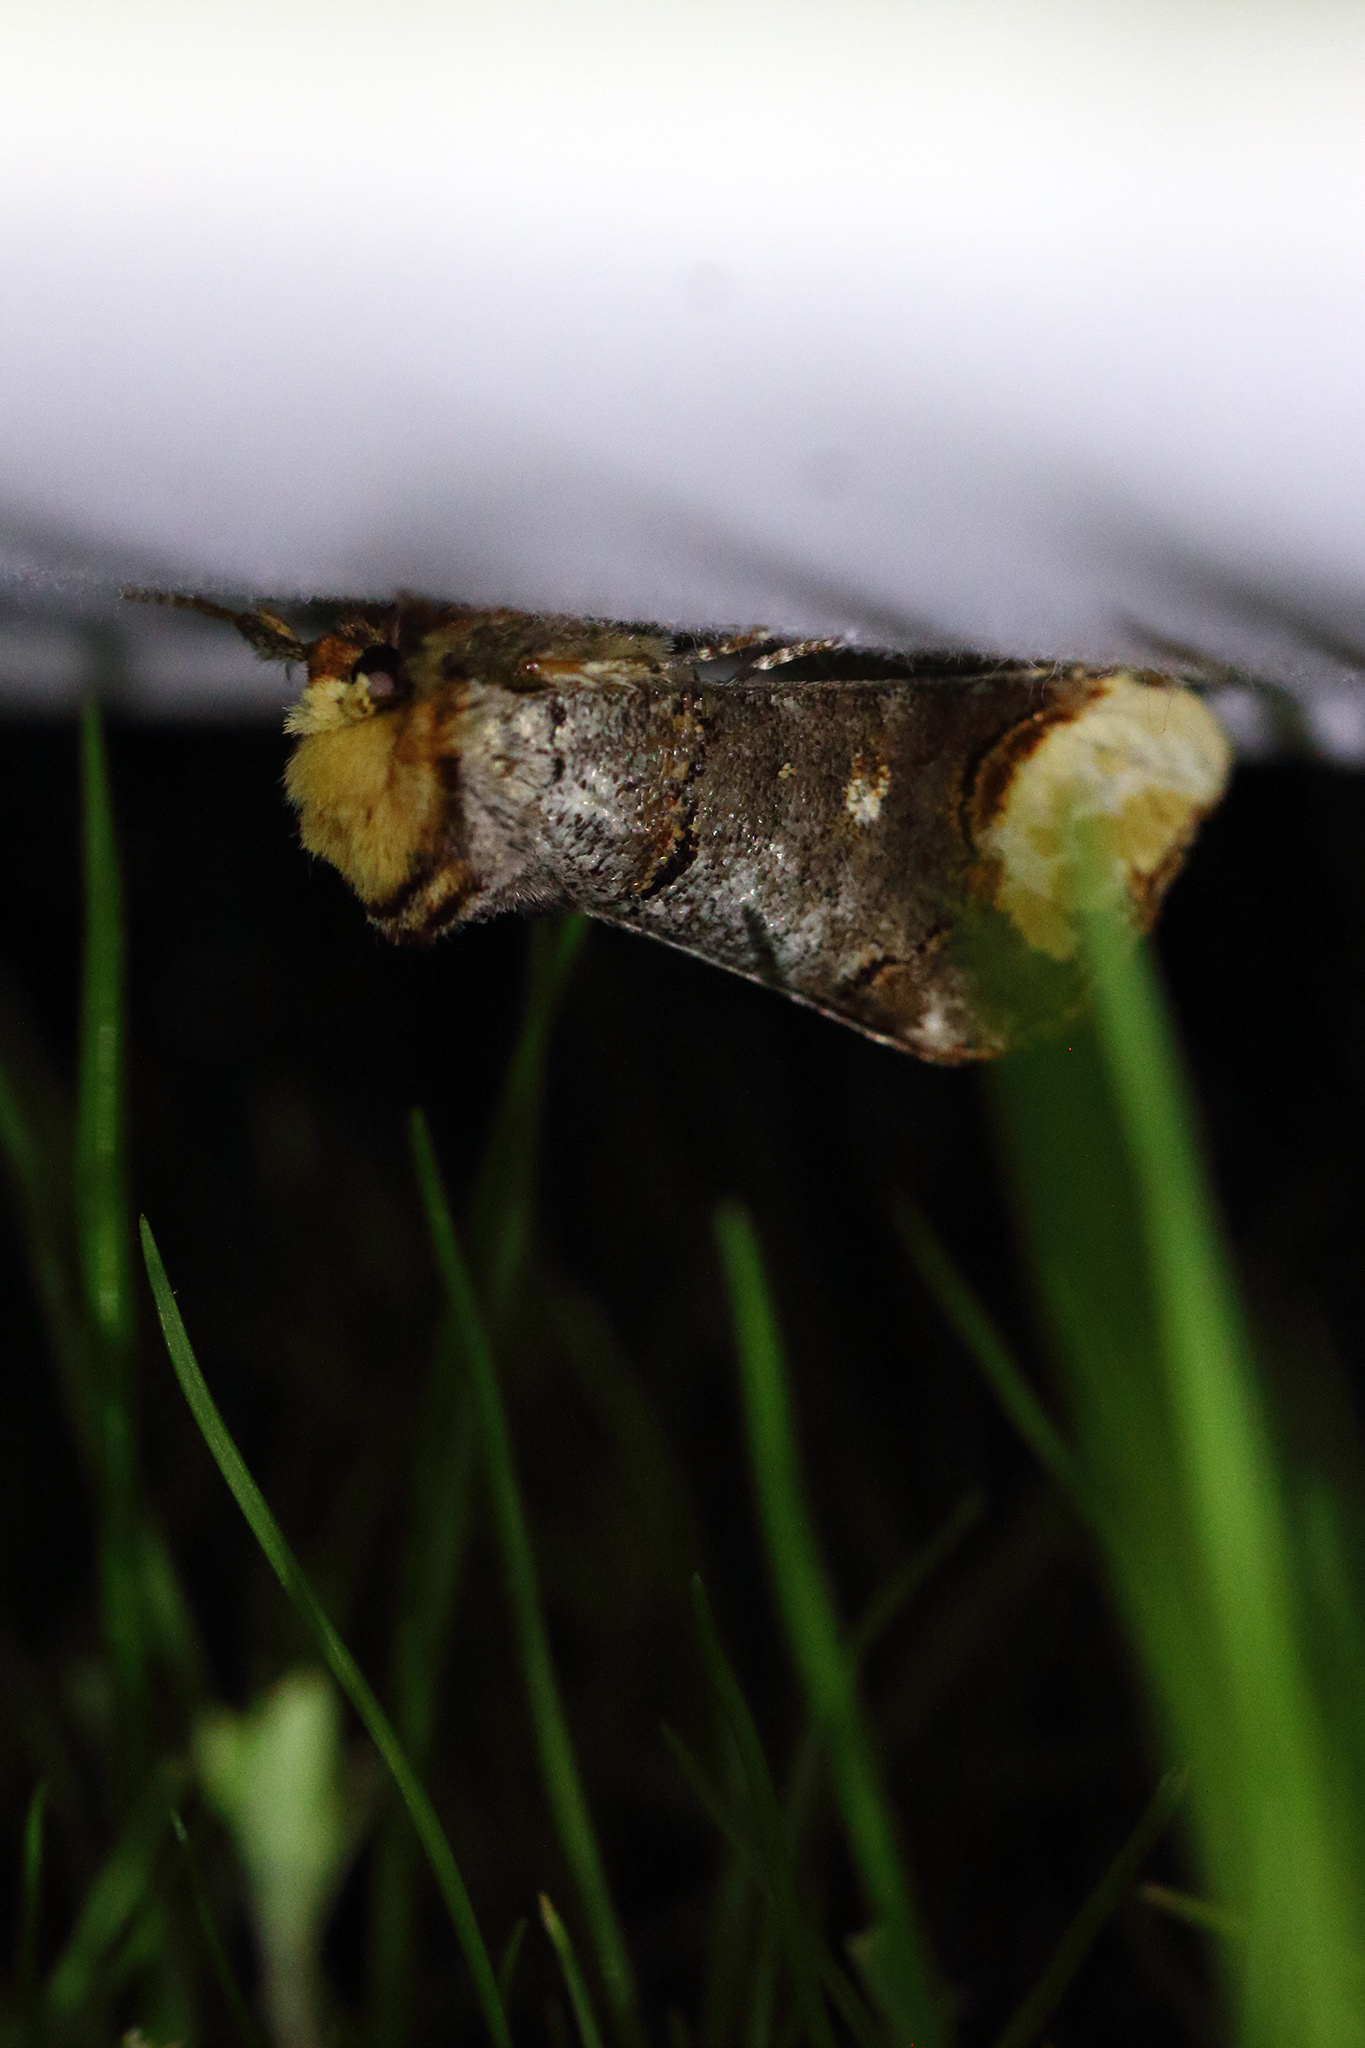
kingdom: Animalia
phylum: Arthropoda
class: Insecta
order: Lepidoptera
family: Notodontidae
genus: Phalera
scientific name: Phalera bucephala
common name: Buff-tip
